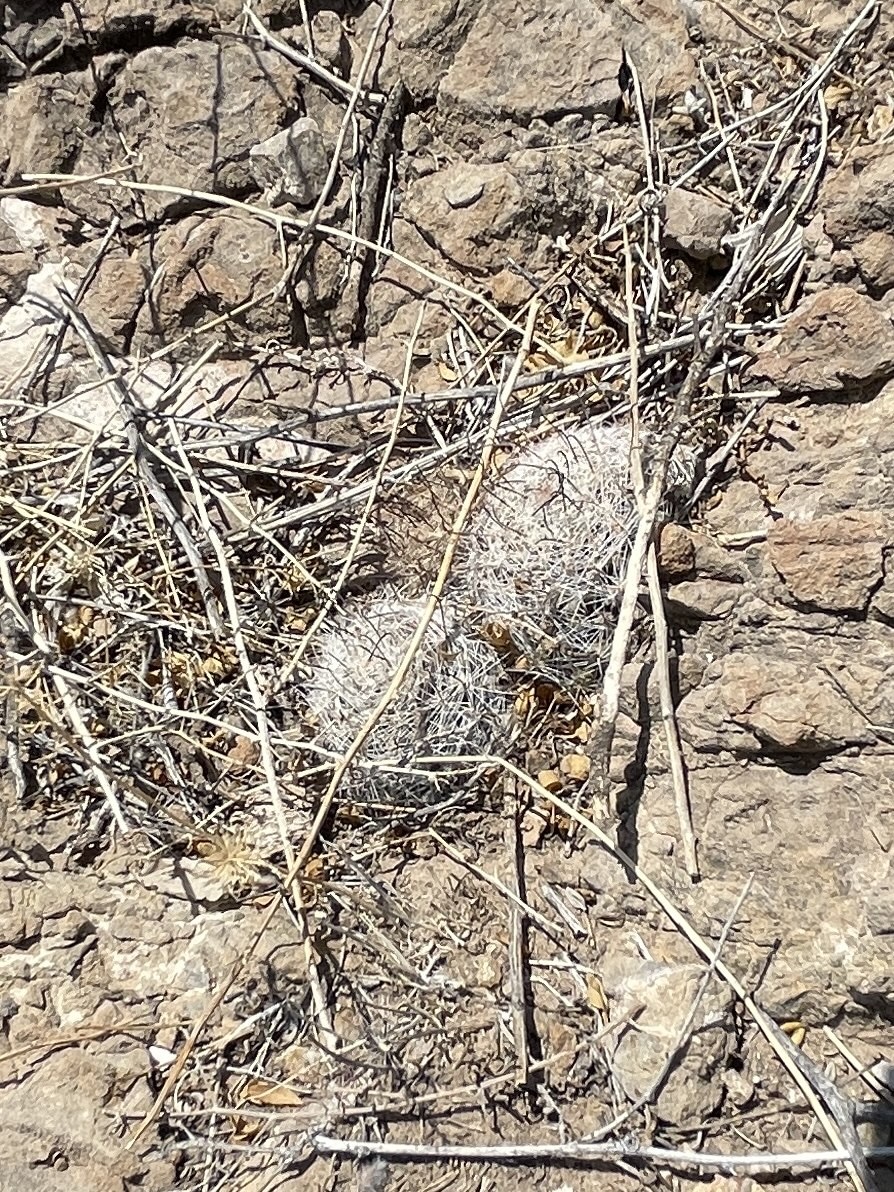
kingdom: Plantae
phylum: Tracheophyta
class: Magnoliopsida
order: Caryophyllales
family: Cactaceae
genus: Cochemiea
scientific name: Cochemiea grahamii
